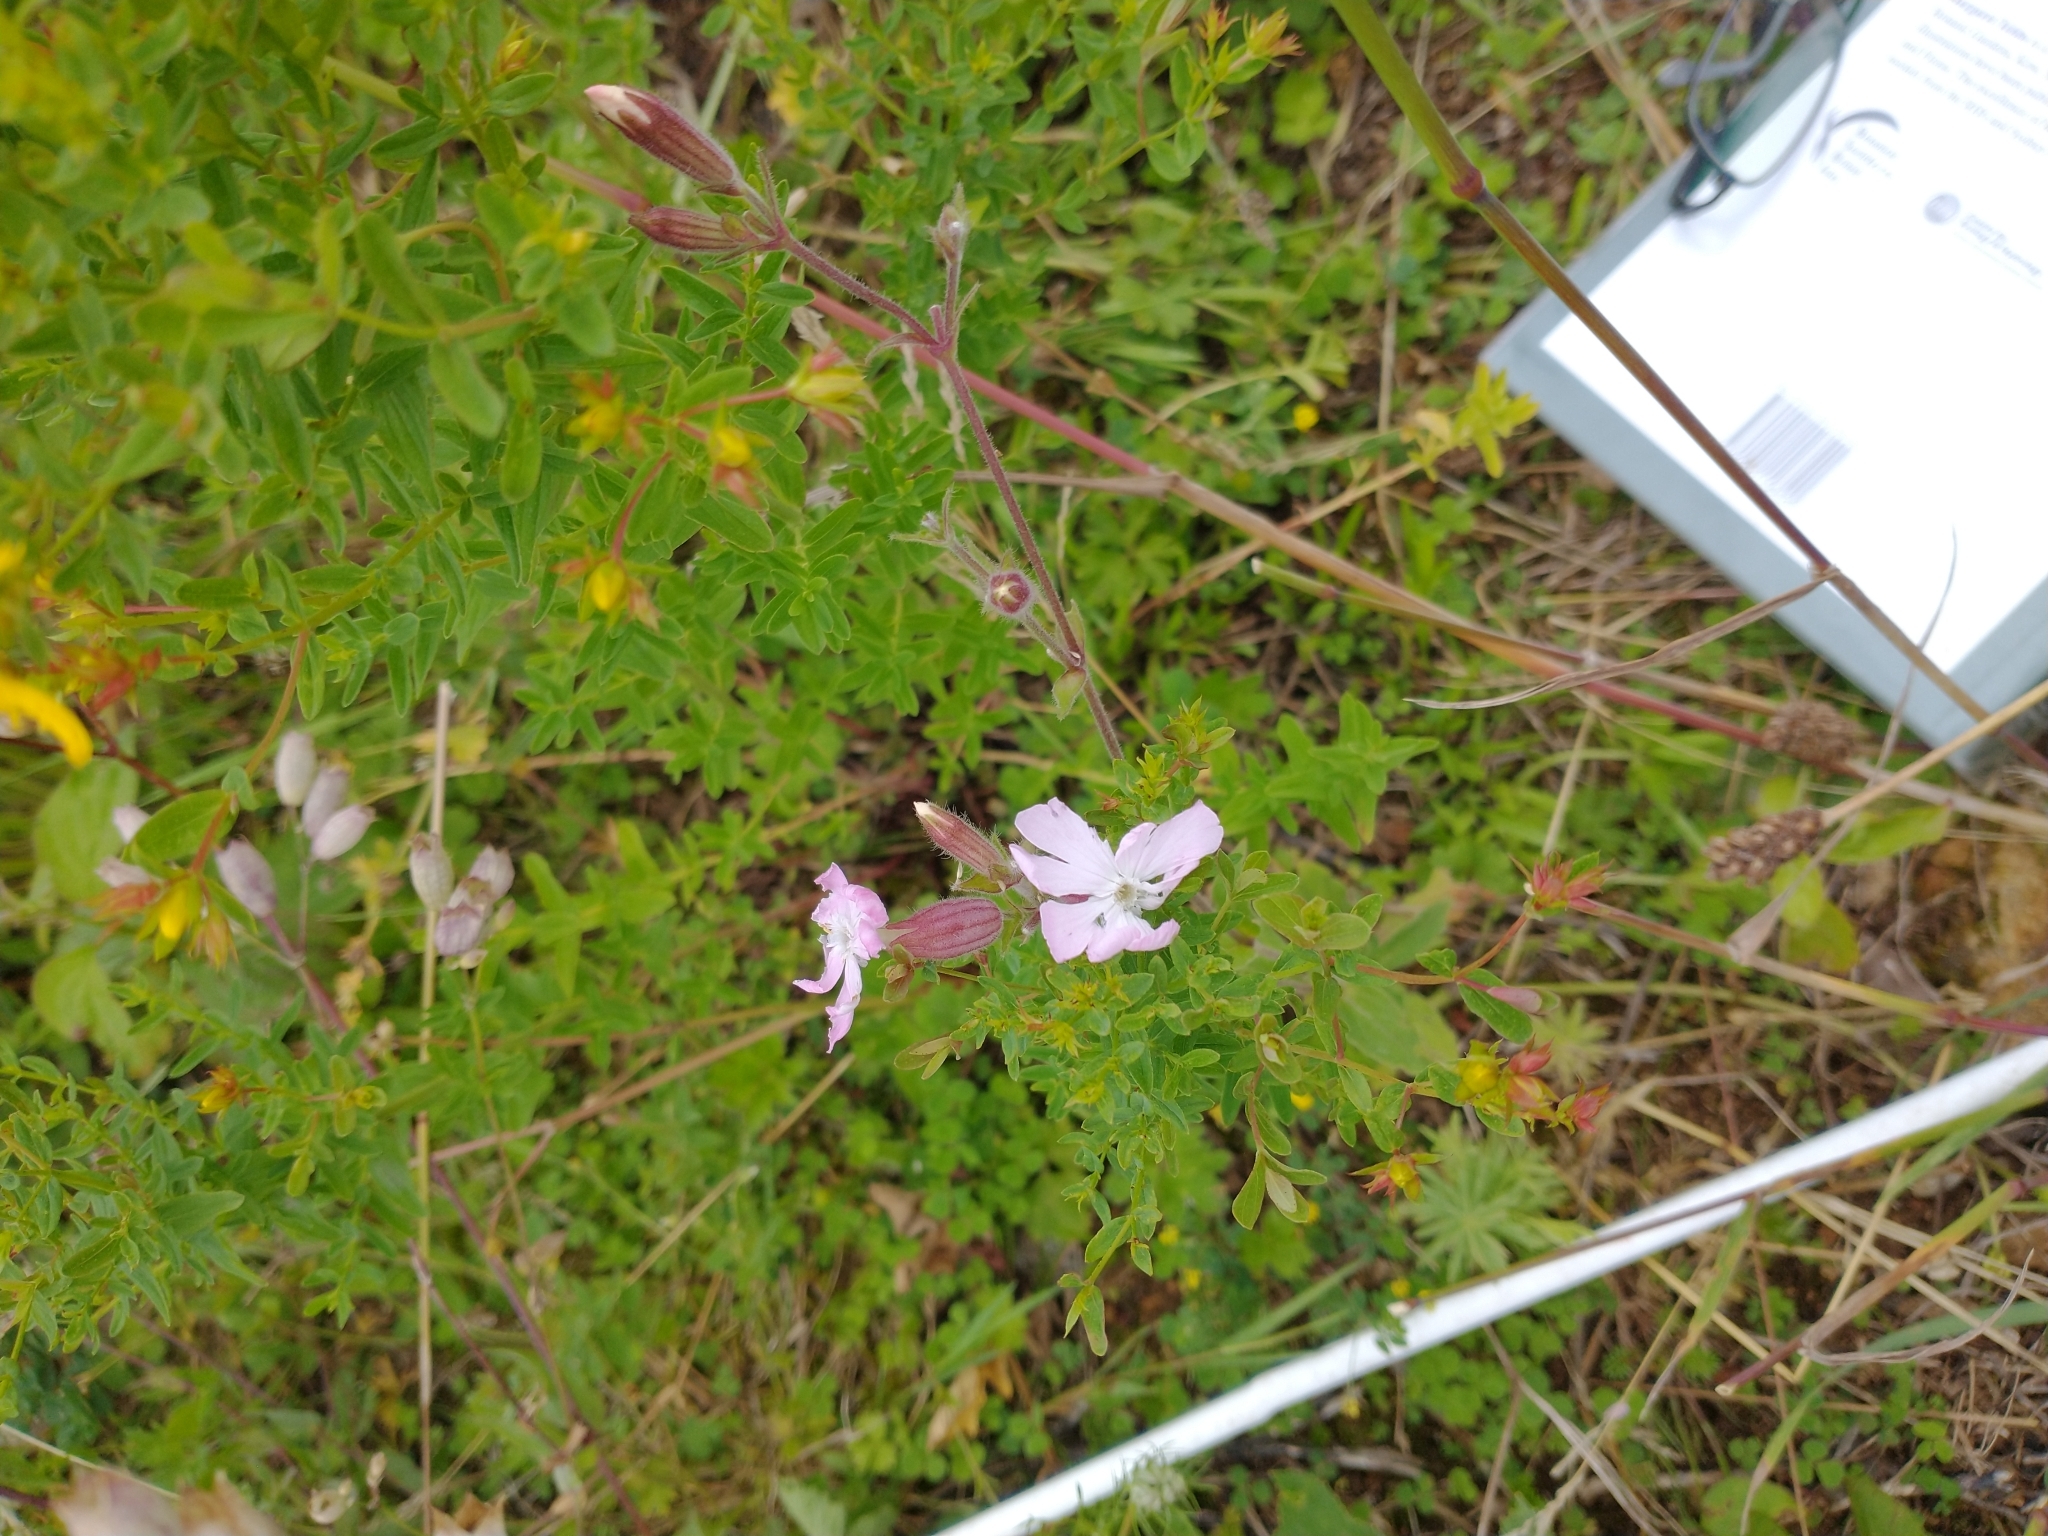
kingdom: Plantae
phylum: Tracheophyta
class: Magnoliopsida
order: Caryophyllales
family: Caryophyllaceae
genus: Silene
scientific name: Silene hampeana
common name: Catchfly
